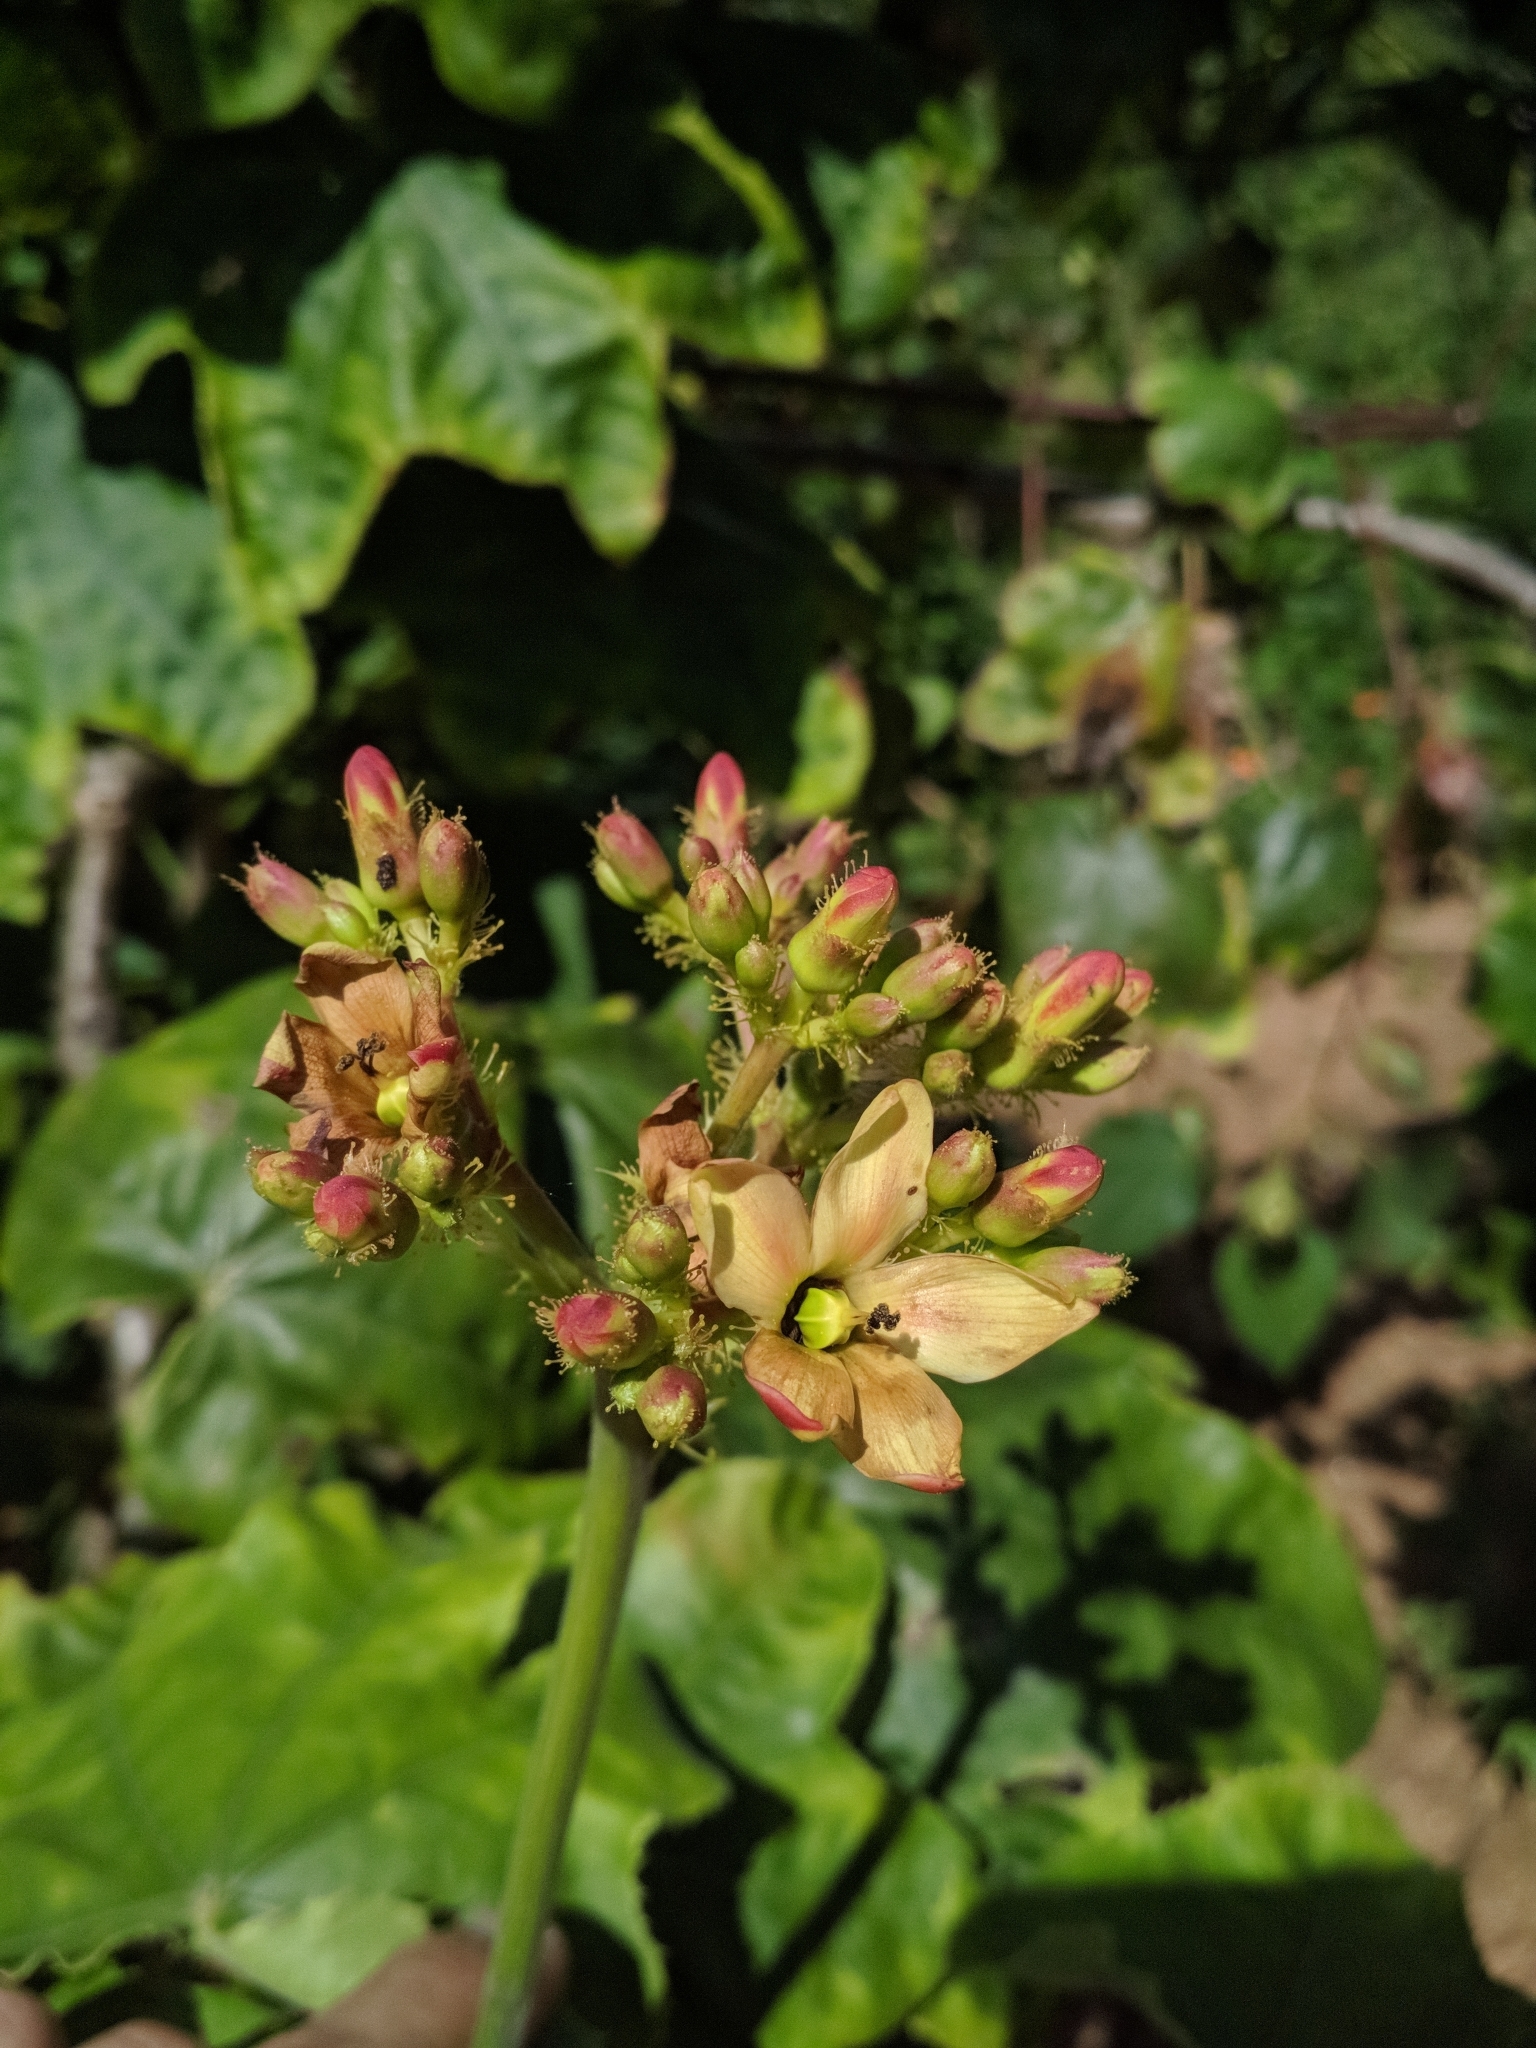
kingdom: Plantae
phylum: Tracheophyta
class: Magnoliopsida
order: Malpighiales
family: Euphorbiaceae
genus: Jatropha
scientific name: Jatropha mollissima
